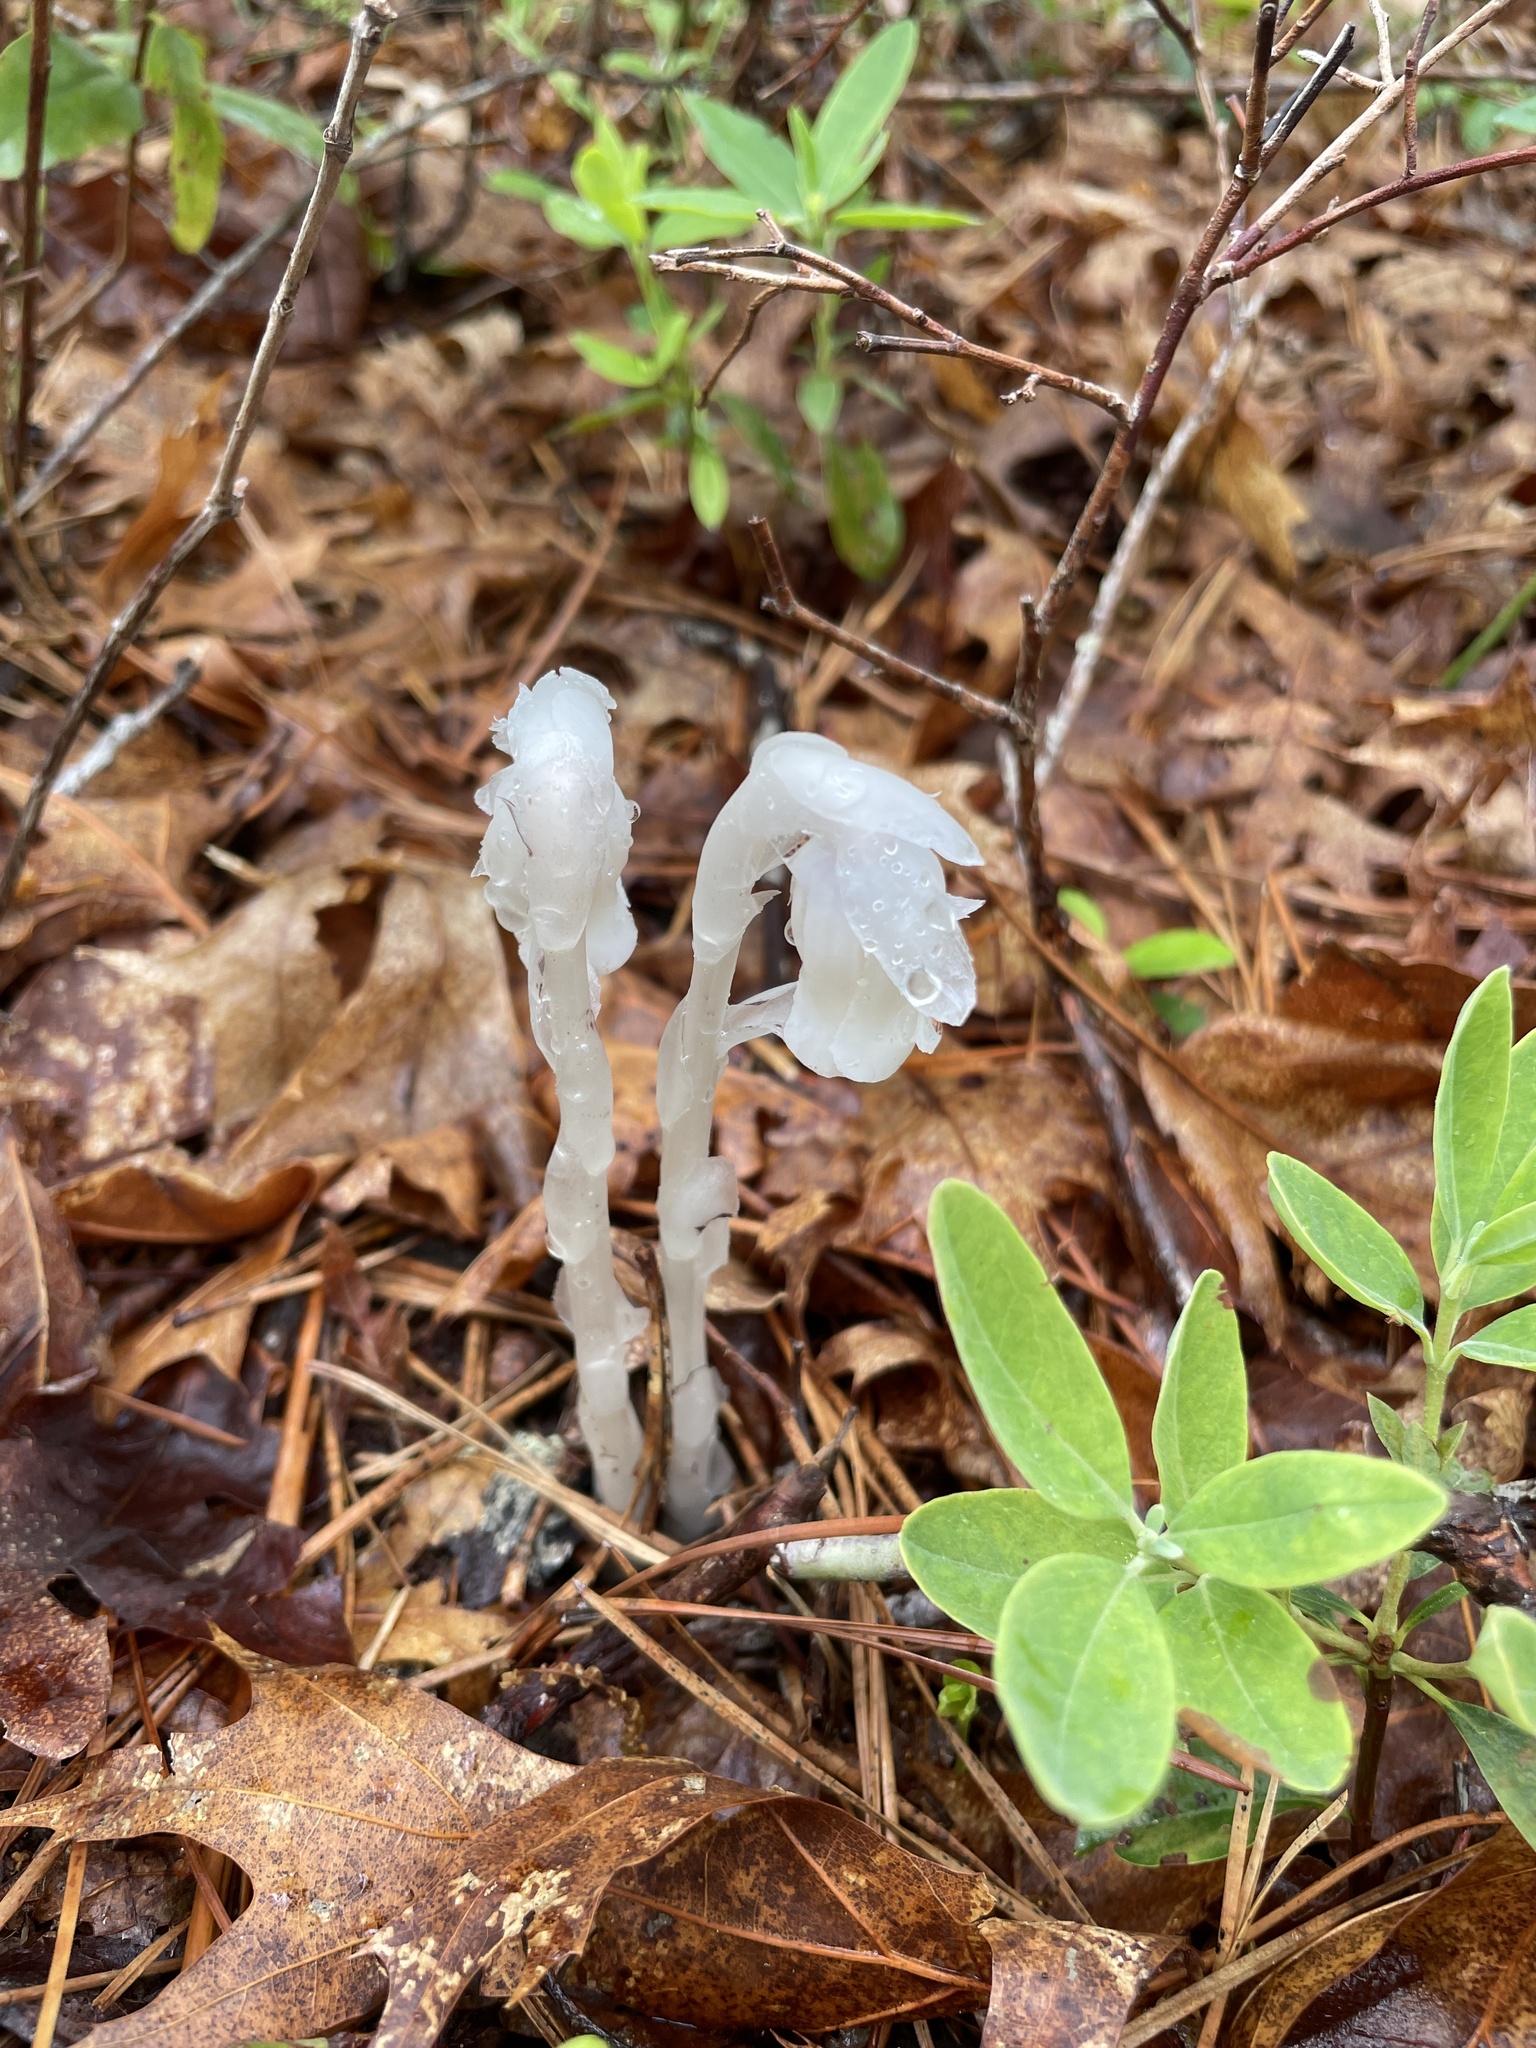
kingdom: Plantae
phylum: Tracheophyta
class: Magnoliopsida
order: Ericales
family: Ericaceae
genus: Monotropa
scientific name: Monotropa uniflora
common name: Convulsion root
